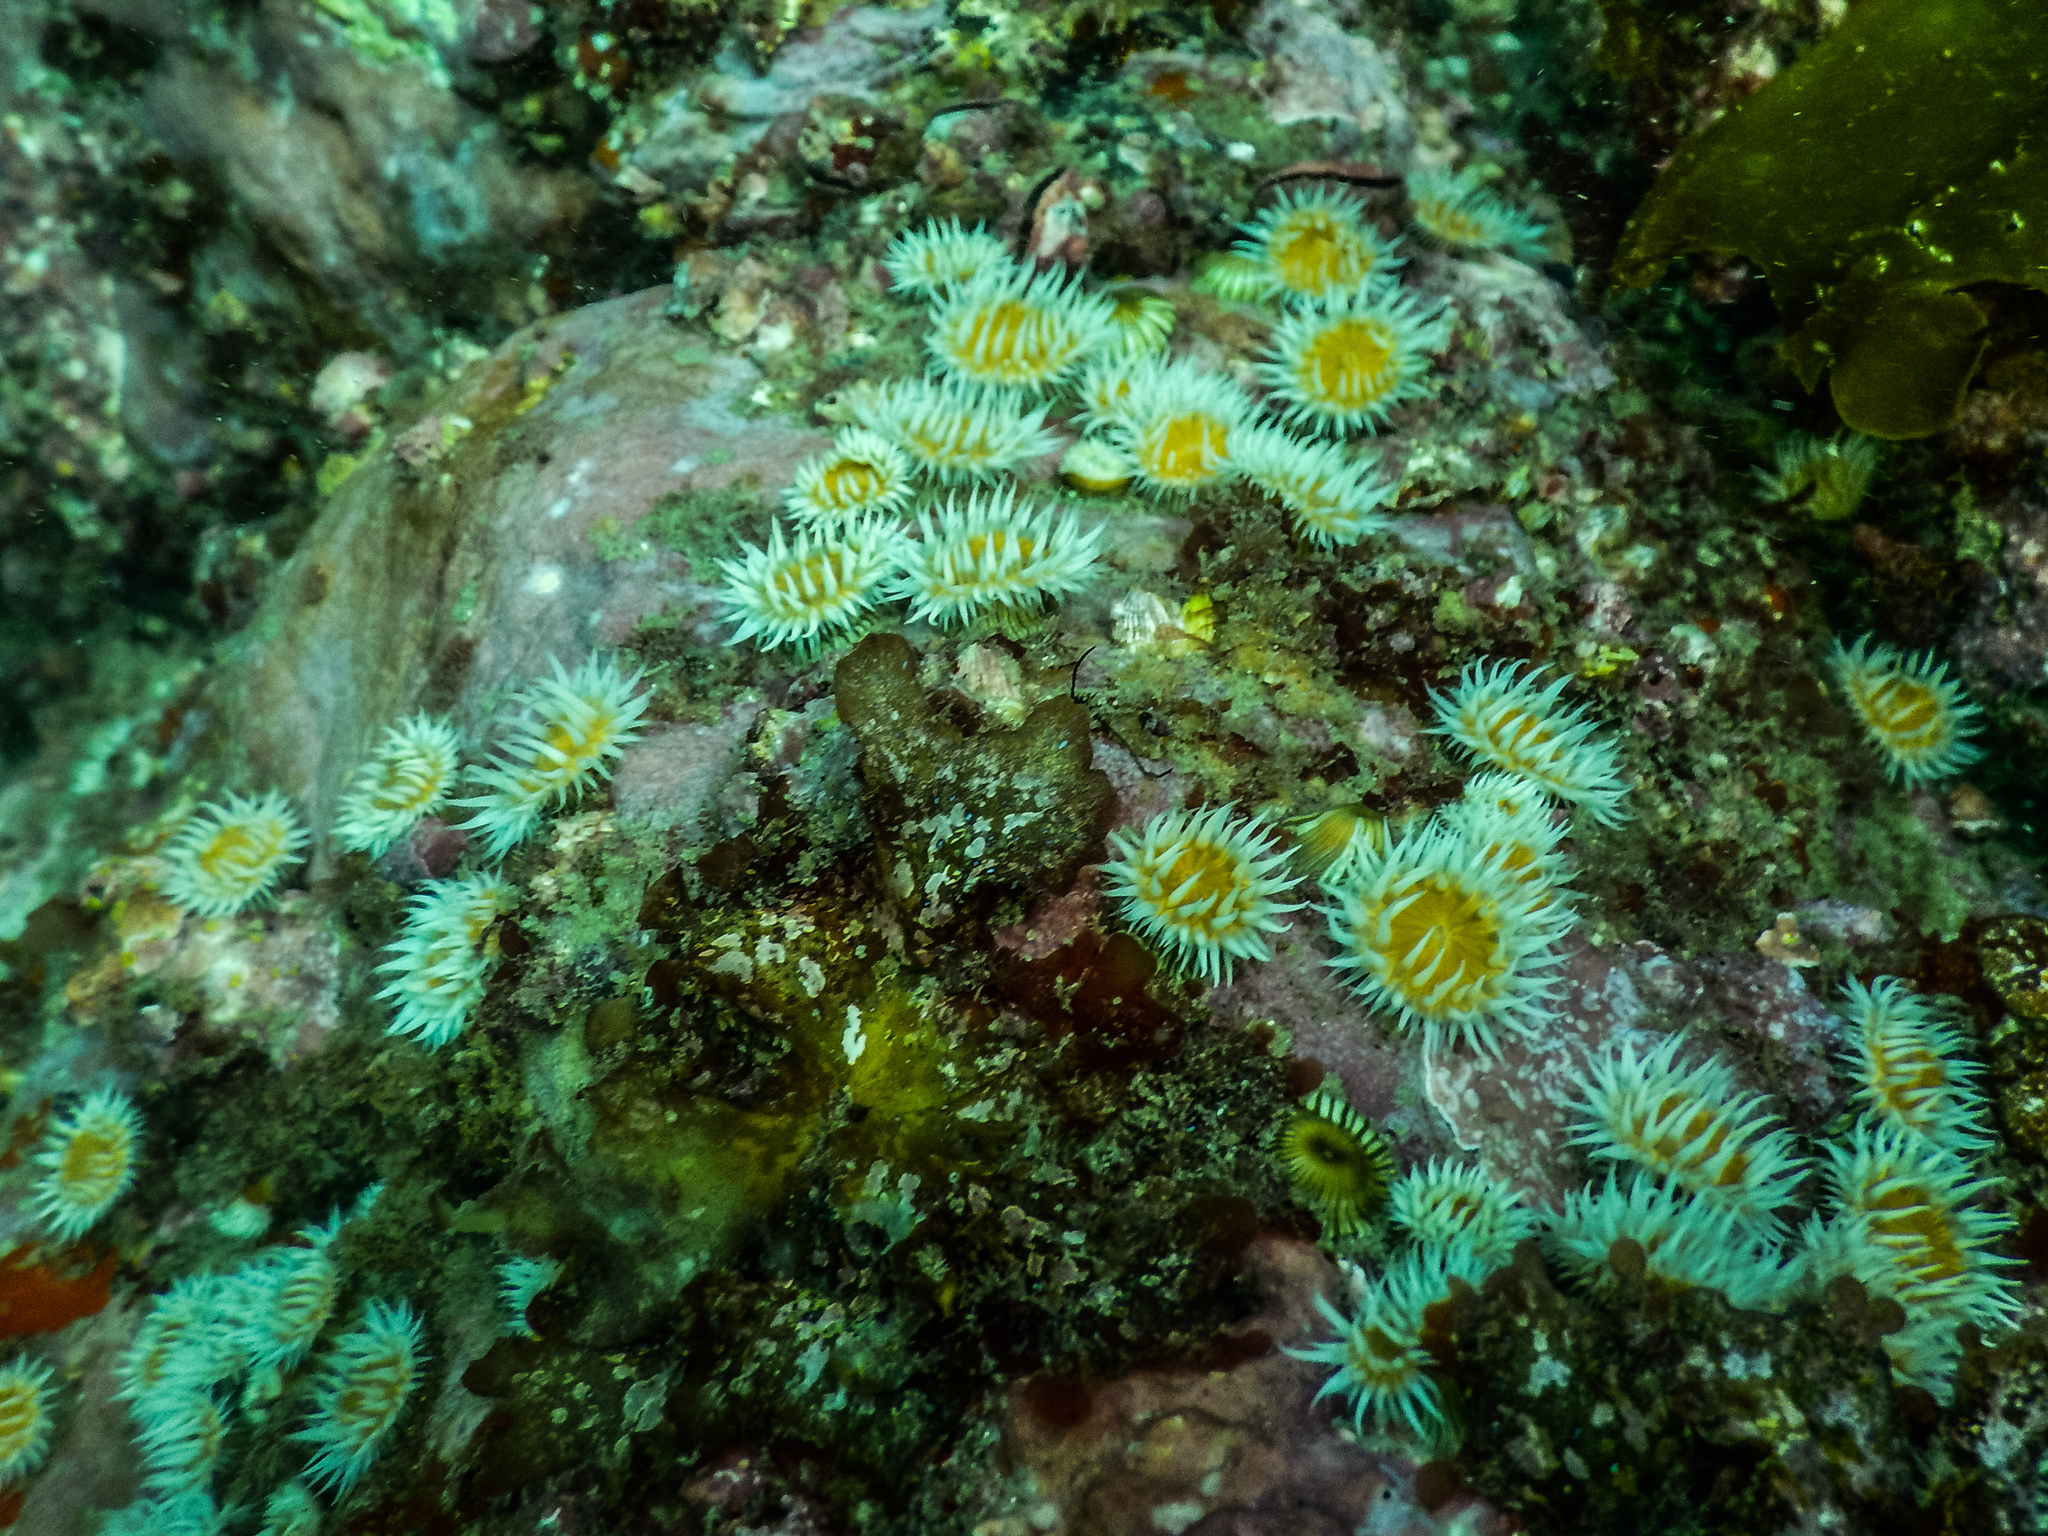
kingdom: Animalia
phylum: Cnidaria
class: Anthozoa
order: Actiniaria
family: Sagartiidae
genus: Anthothoe
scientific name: Anthothoe albocincta
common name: Orange striped anemone
